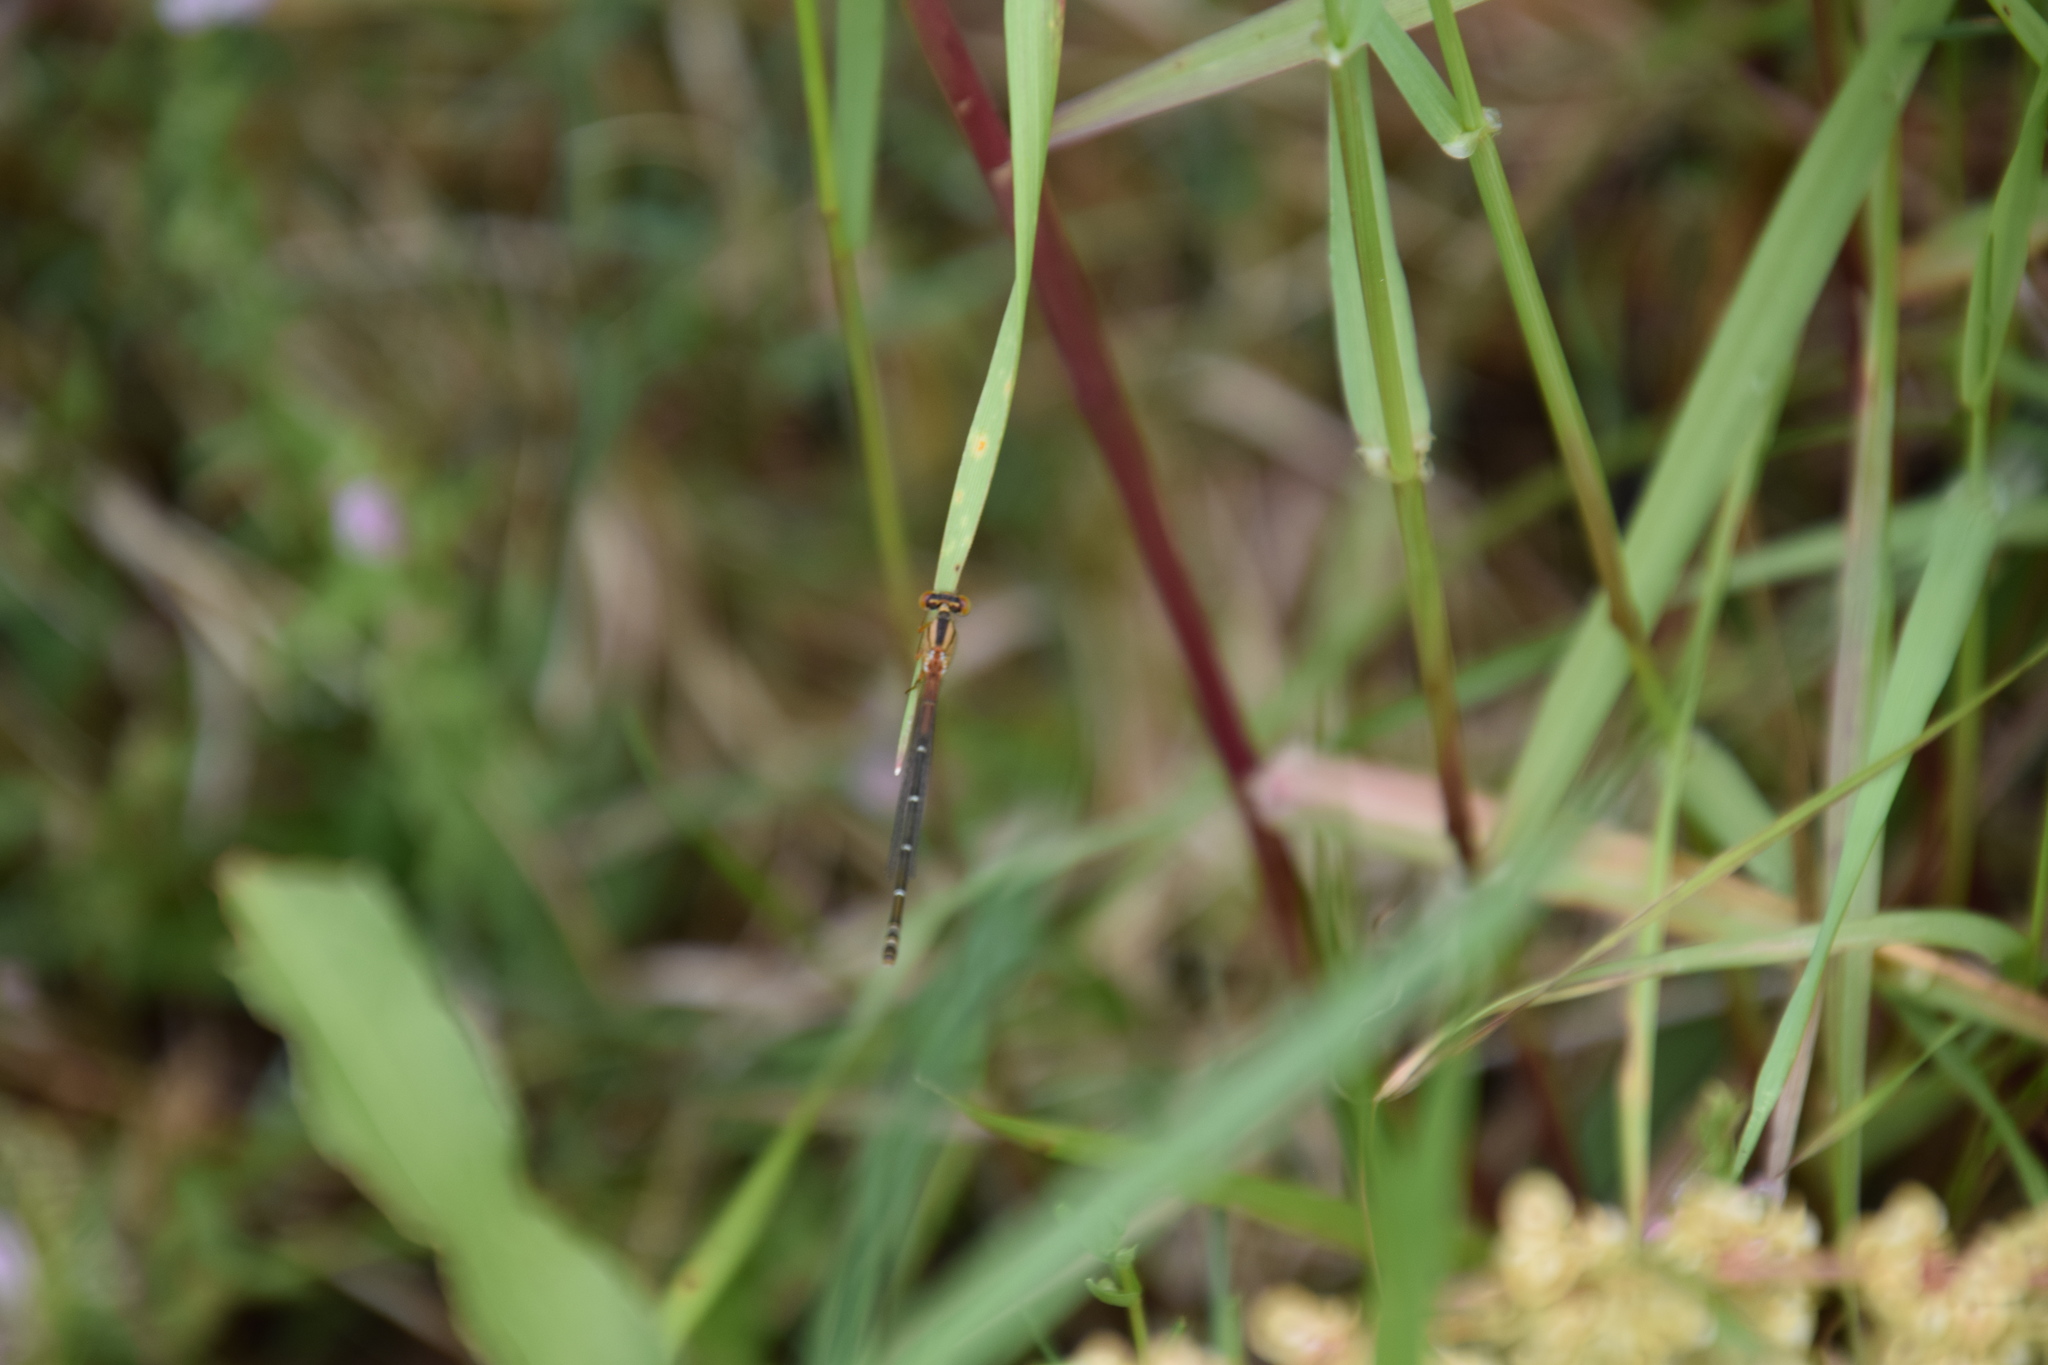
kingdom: Animalia
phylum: Arthropoda
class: Insecta
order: Odonata
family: Coenagrionidae
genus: Xanthagrion
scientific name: Xanthagrion erythroneurum
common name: Red and blue damsel
